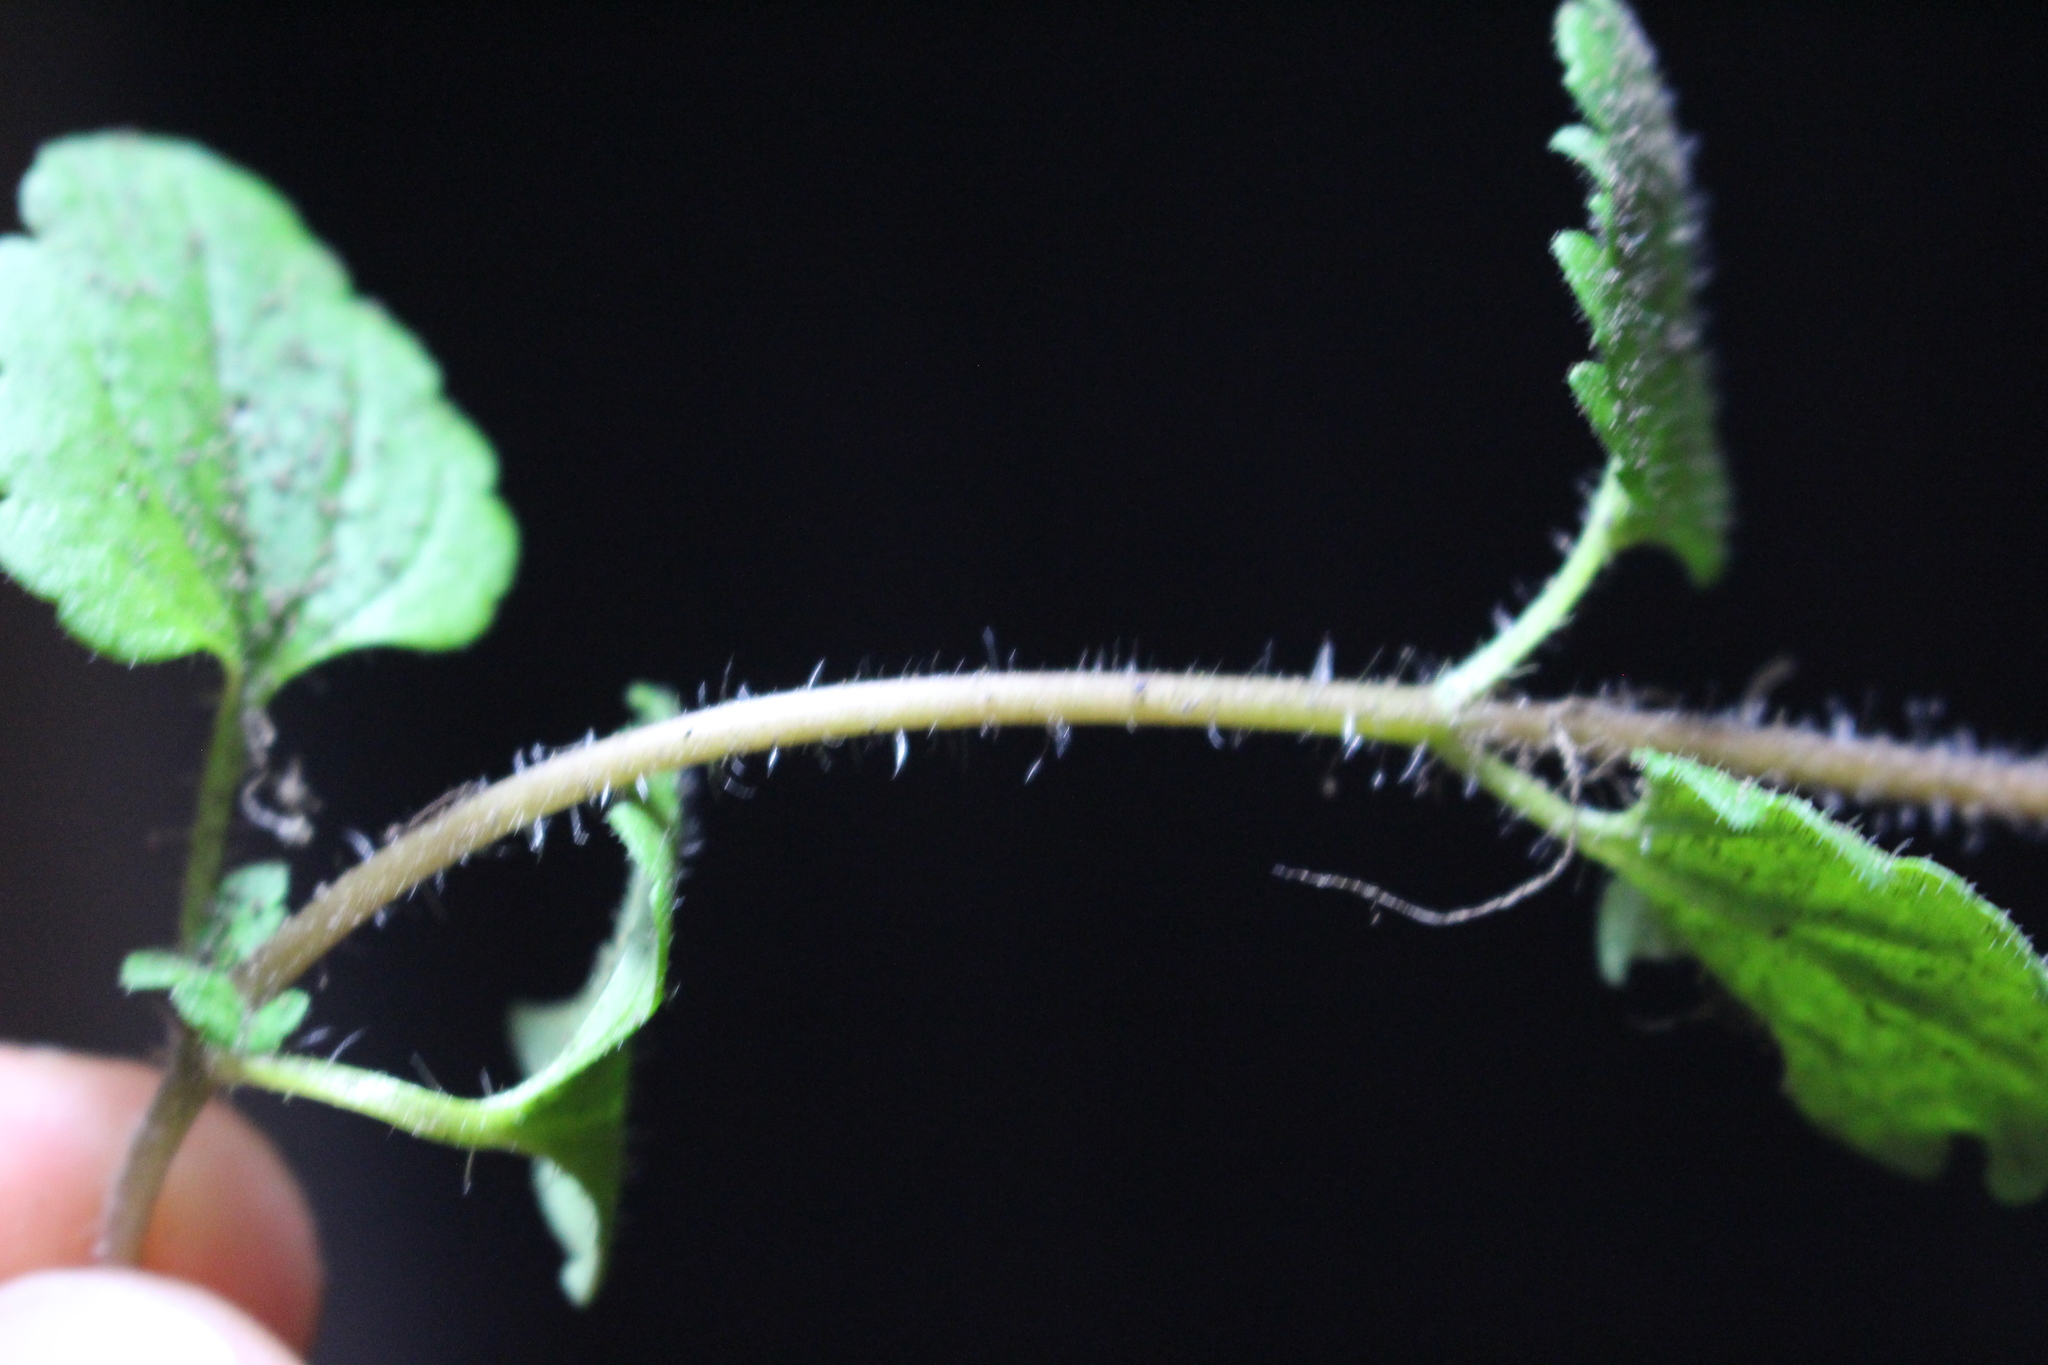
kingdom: Plantae
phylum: Tracheophyta
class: Magnoliopsida
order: Lamiales
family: Plantaginaceae
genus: Veronica
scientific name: Veronica persica
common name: Common field-speedwell
